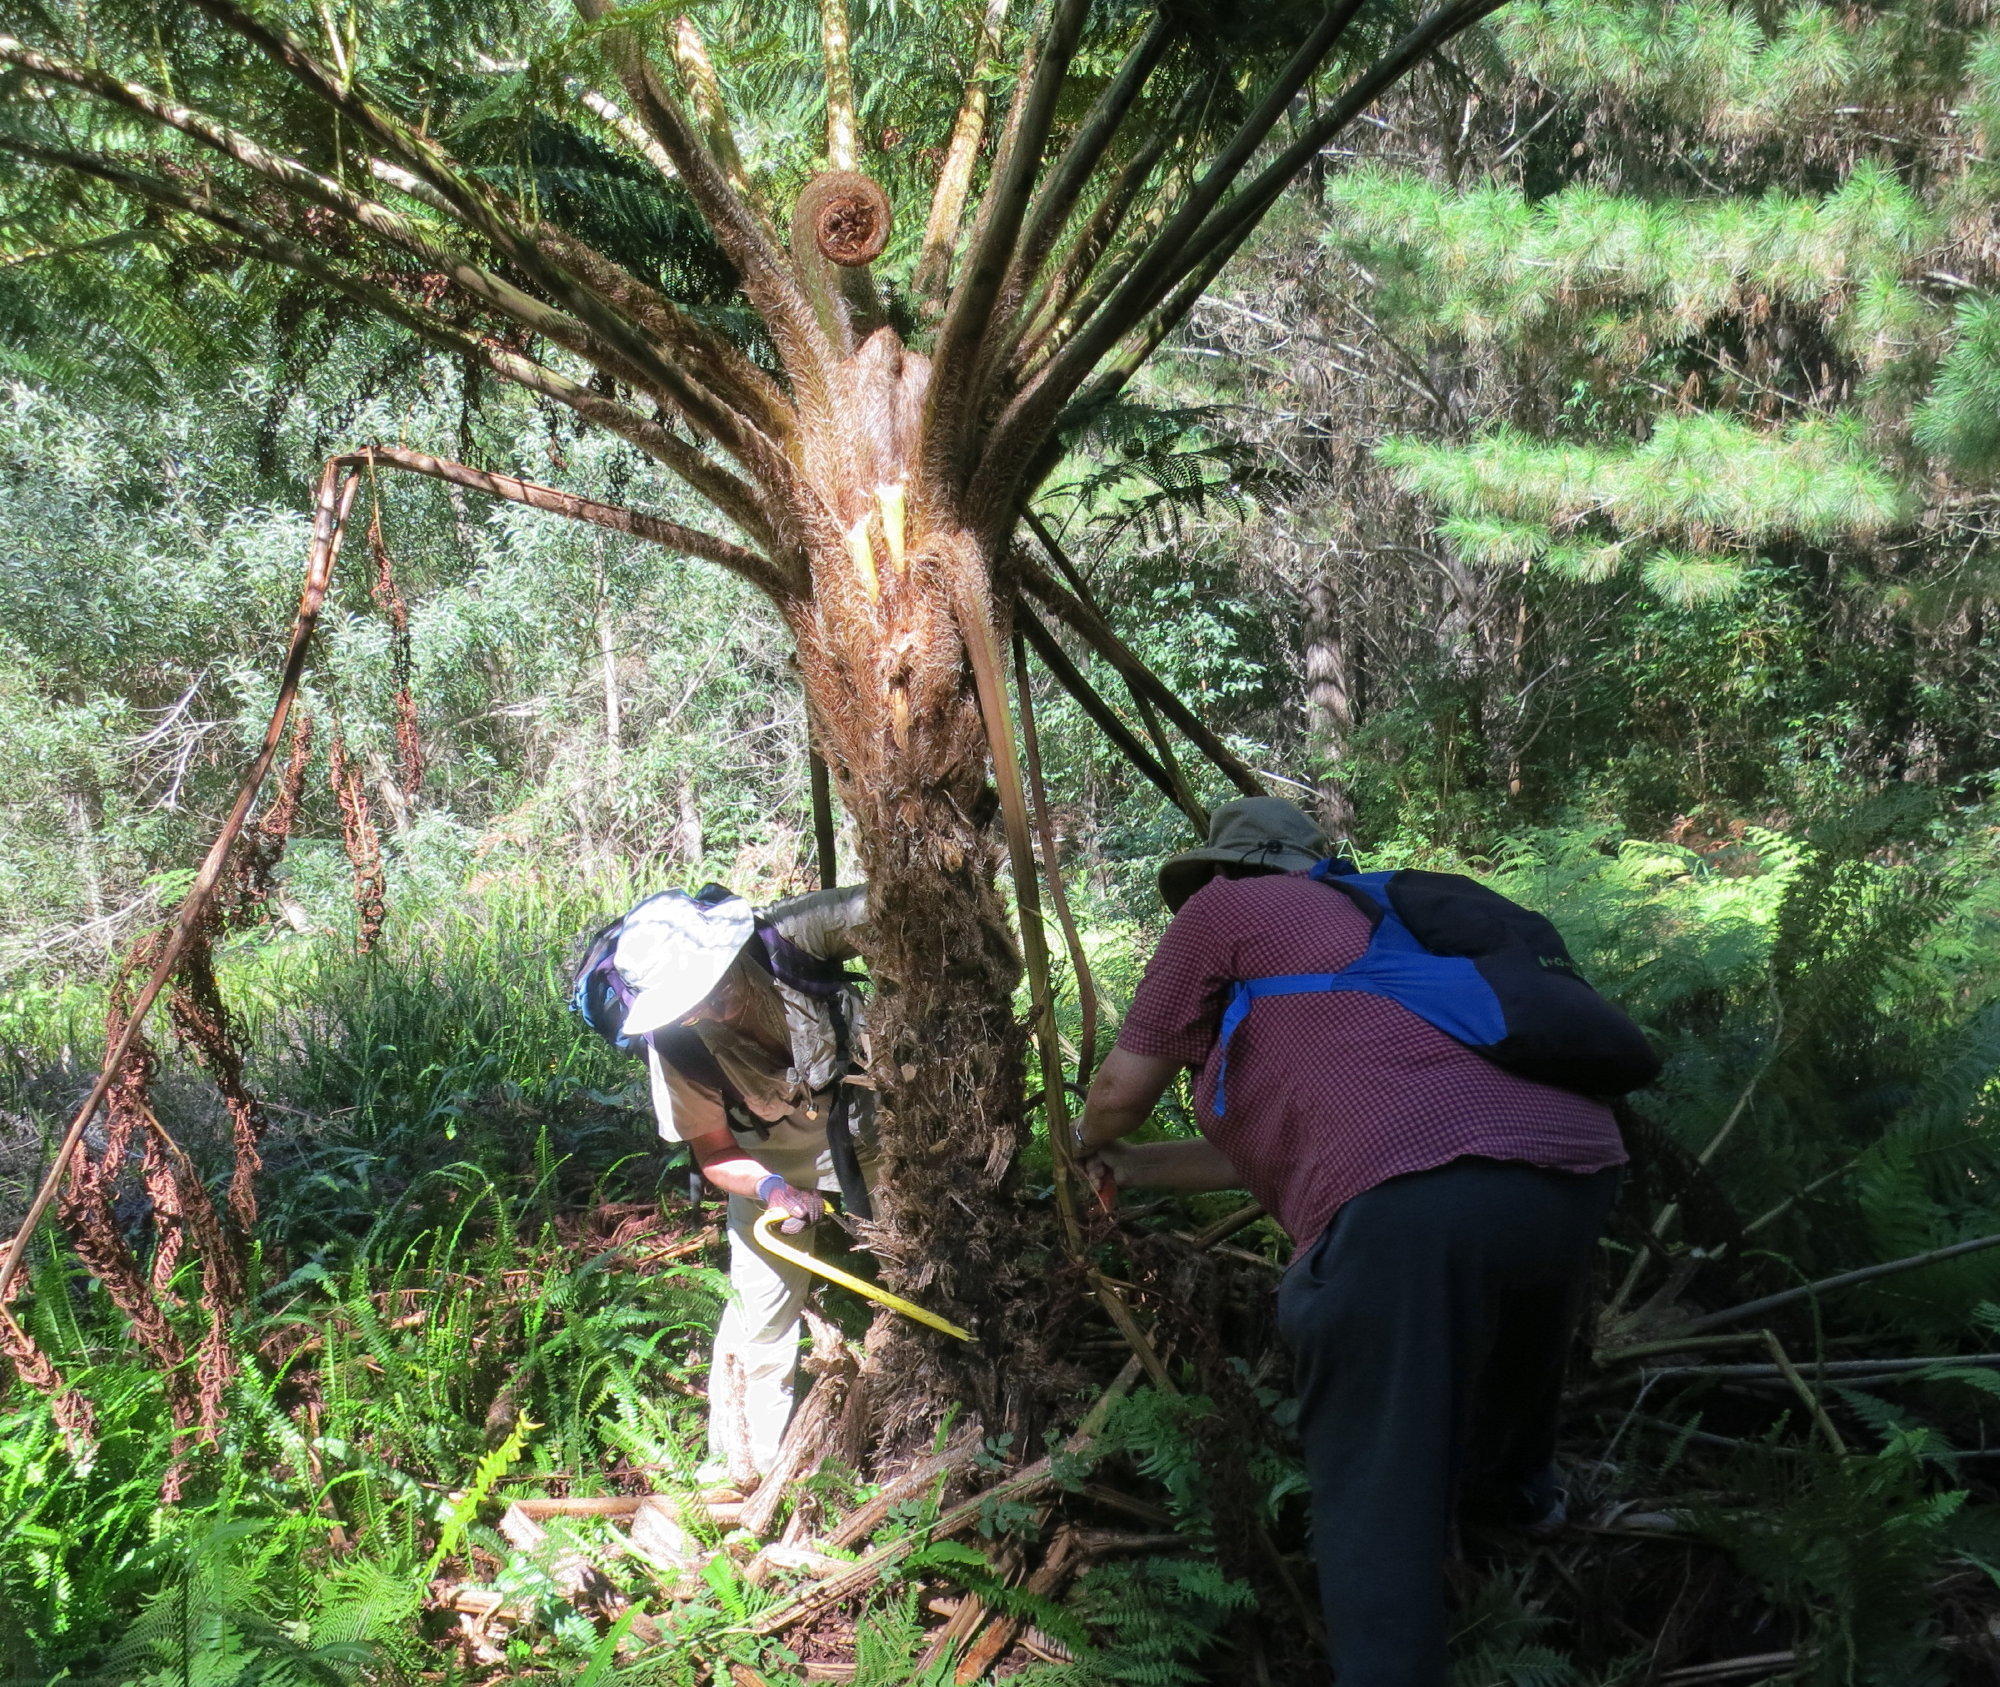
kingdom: Plantae
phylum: Tracheophyta
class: Polypodiopsida
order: Cyatheales
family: Cyatheaceae
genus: Sphaeropteris
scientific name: Sphaeropteris cooperi
